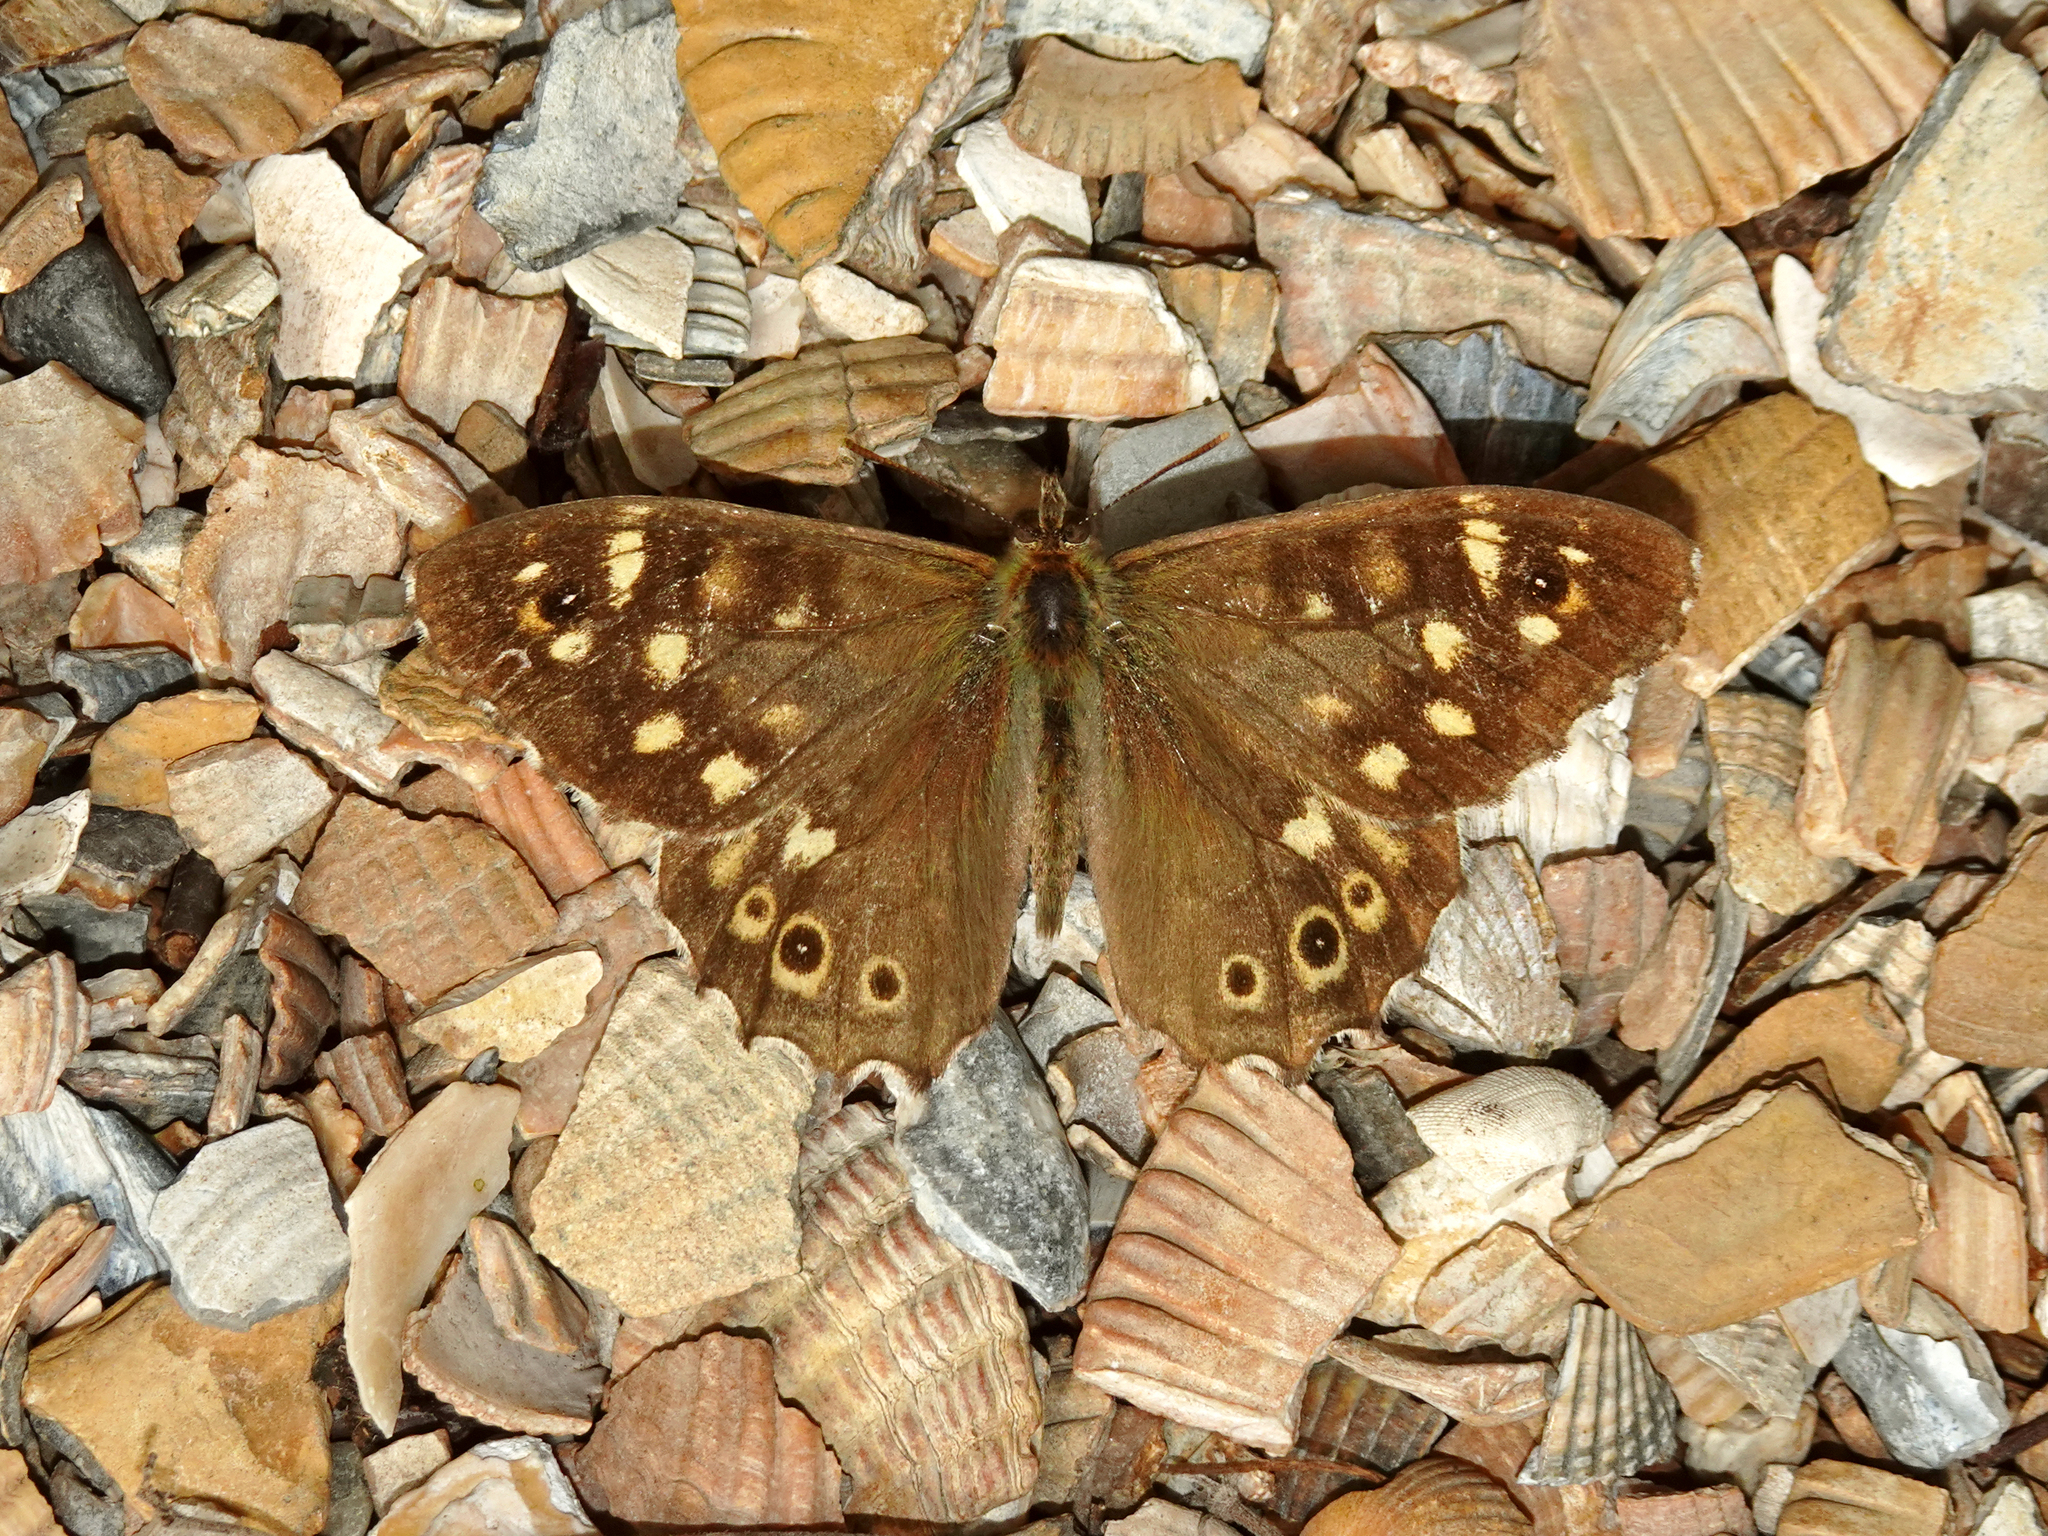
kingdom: Animalia
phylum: Arthropoda
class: Insecta
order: Lepidoptera
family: Nymphalidae
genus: Pararge
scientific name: Pararge aegeria
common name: Speckled wood
